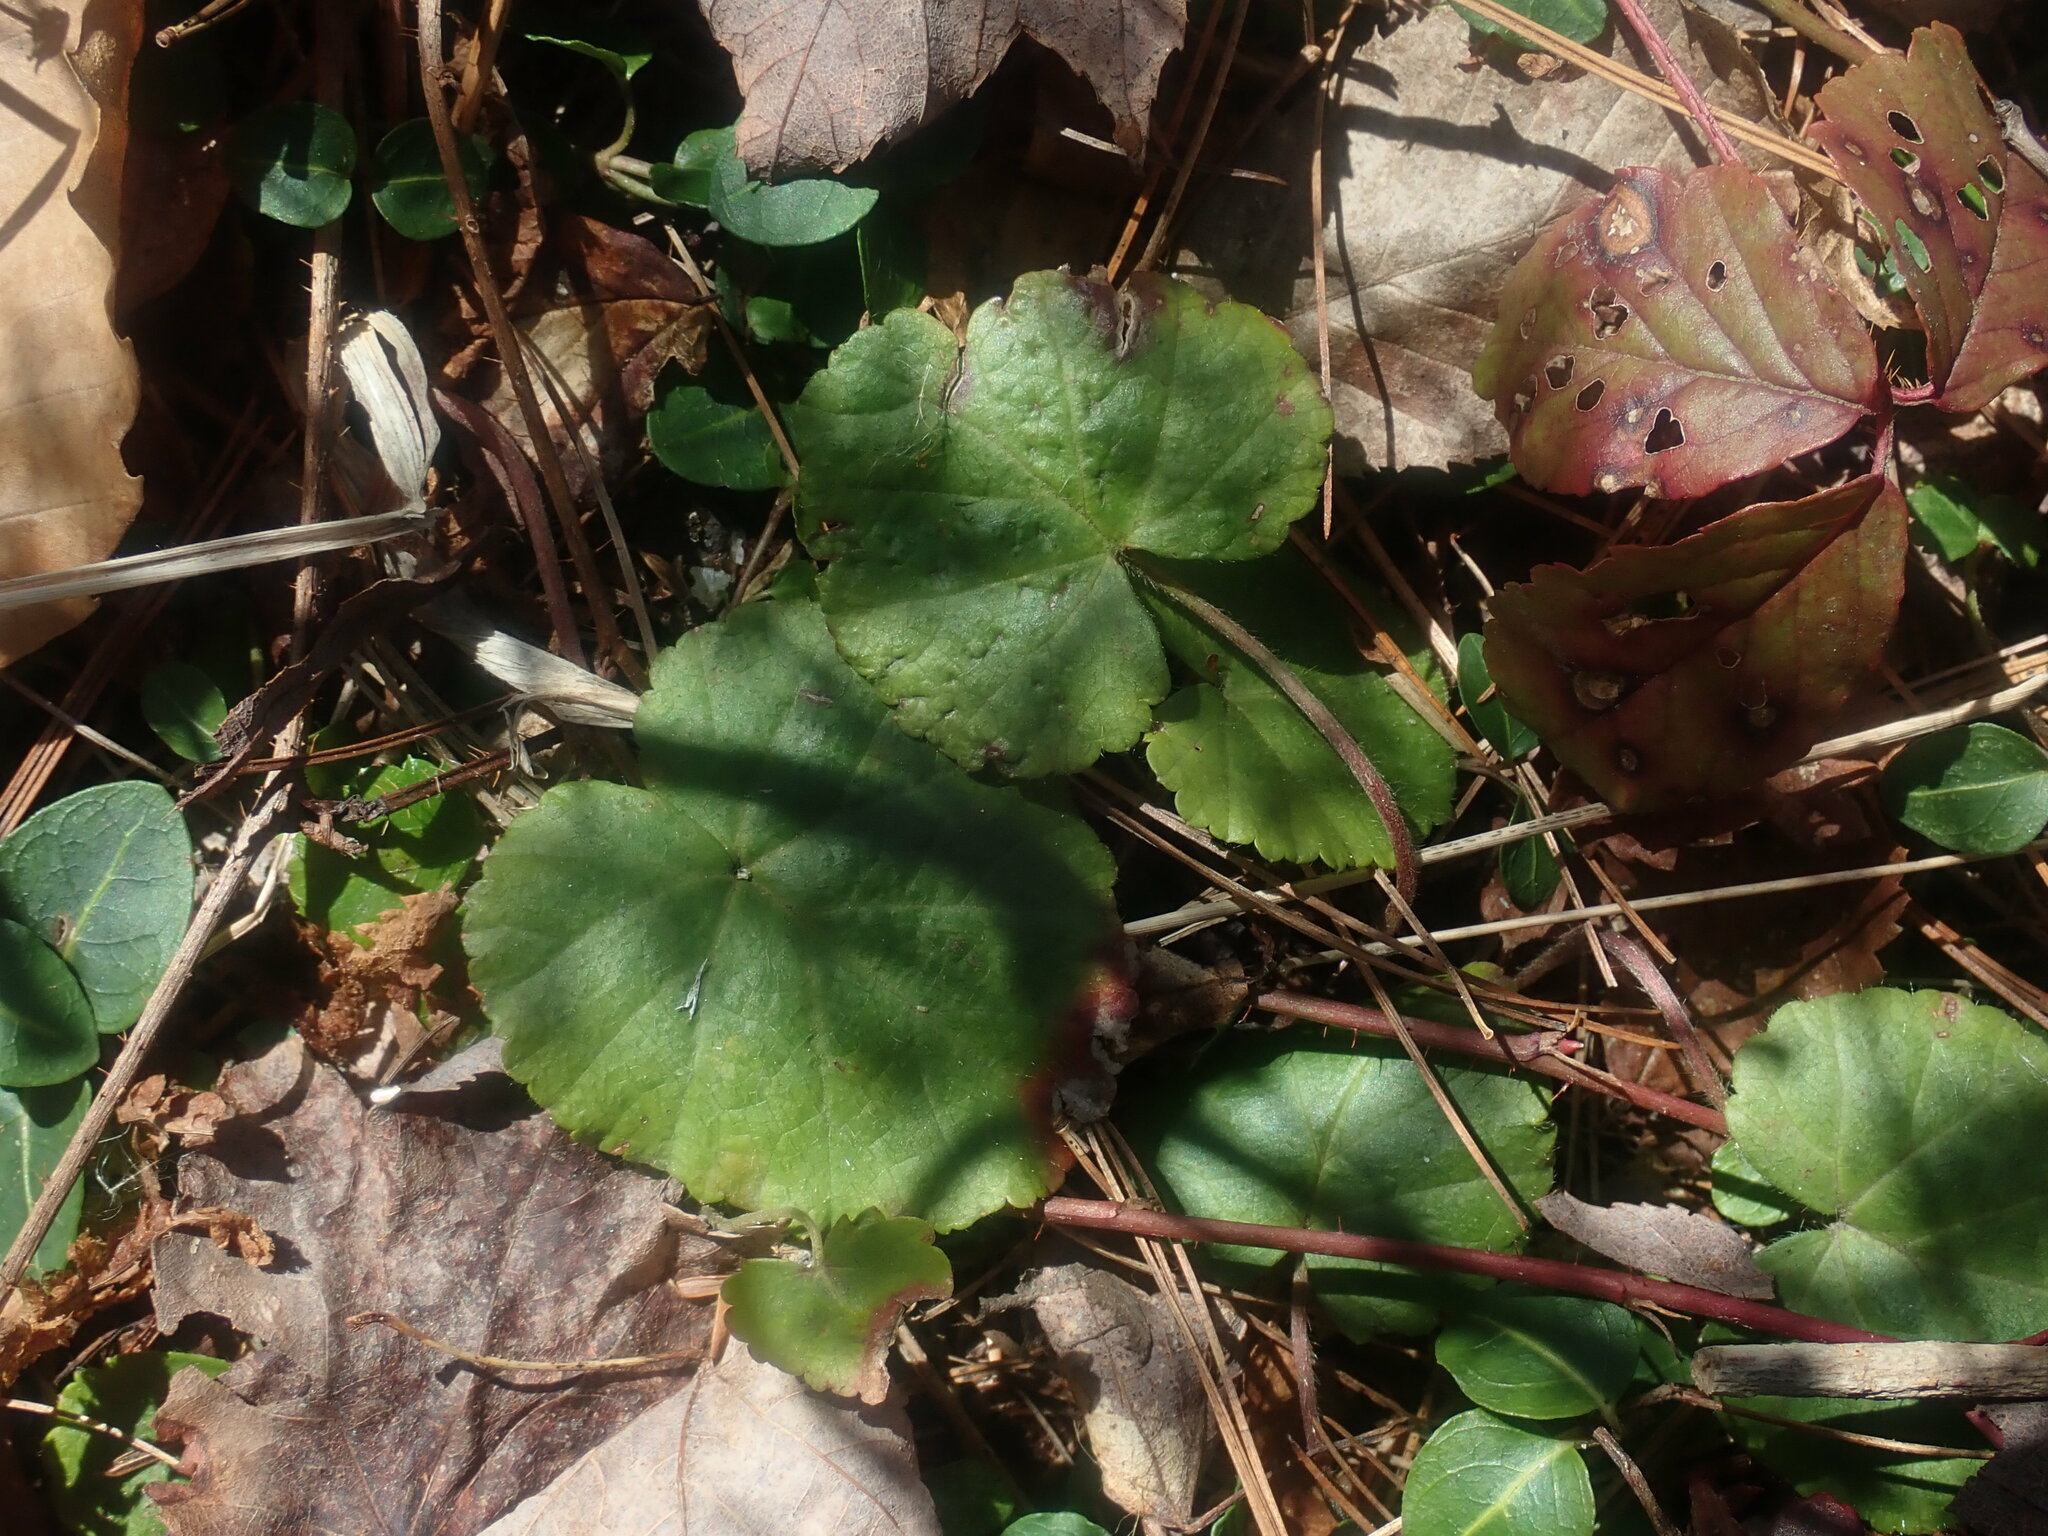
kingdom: Plantae
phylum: Tracheophyta
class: Magnoliopsida
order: Rosales
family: Rosaceae
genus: Dalibarda
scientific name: Dalibarda repens
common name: Dewdrop
